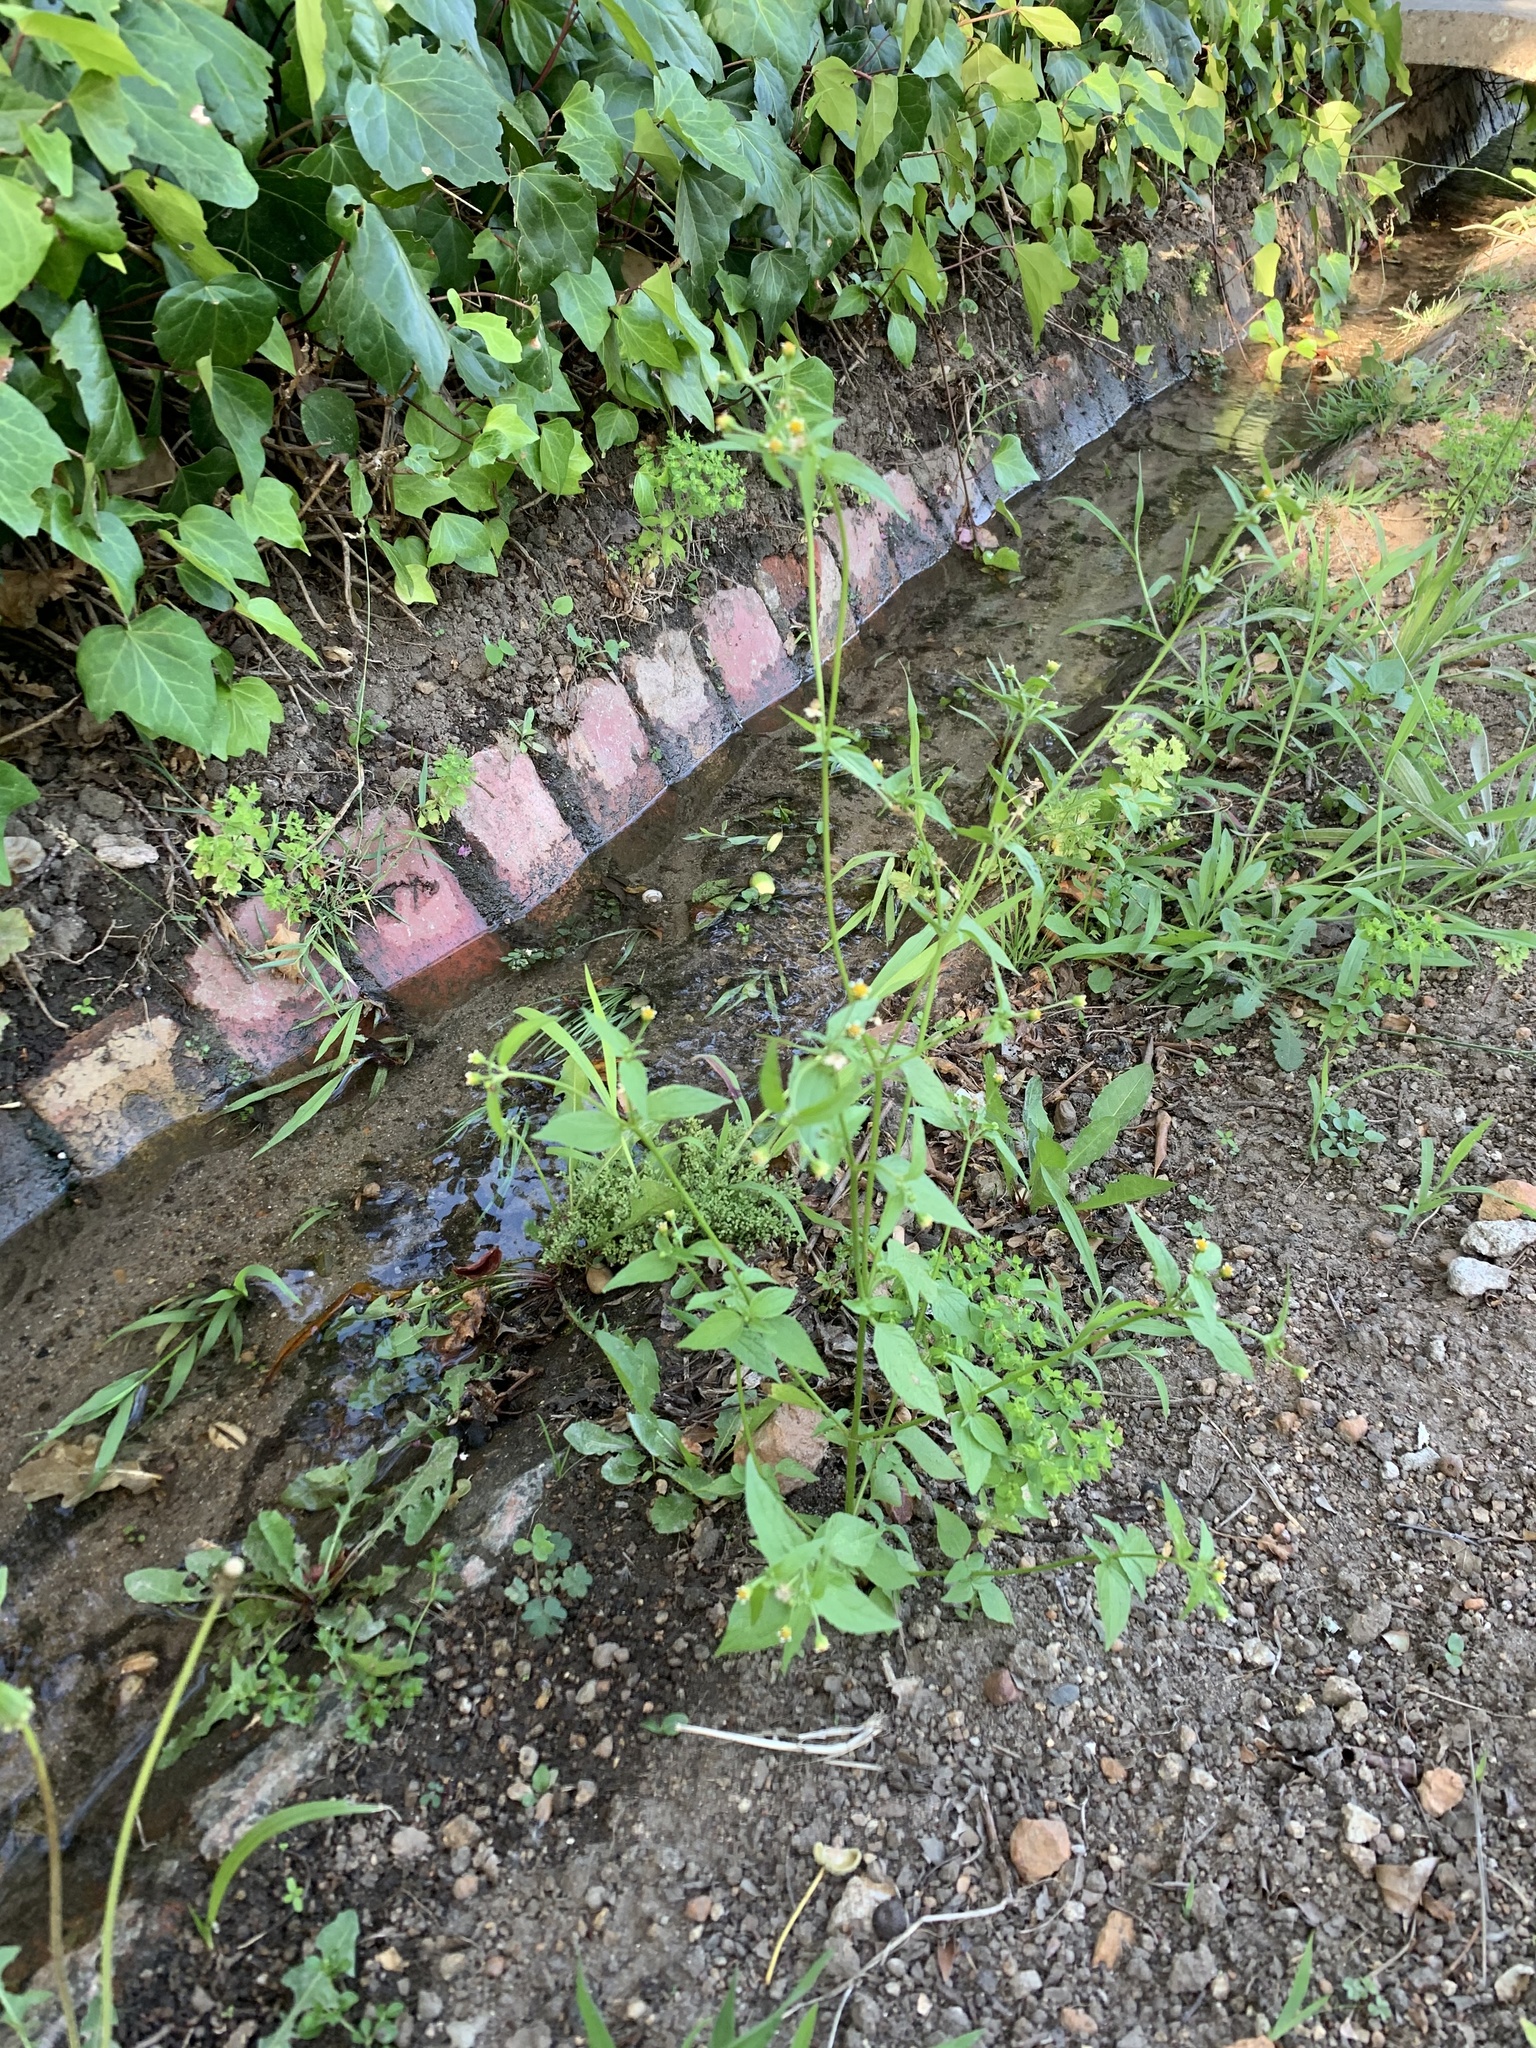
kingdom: Plantae
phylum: Tracheophyta
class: Magnoliopsida
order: Asterales
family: Asteraceae
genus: Galinsoga
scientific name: Galinsoga parviflora
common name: Gallant soldier
